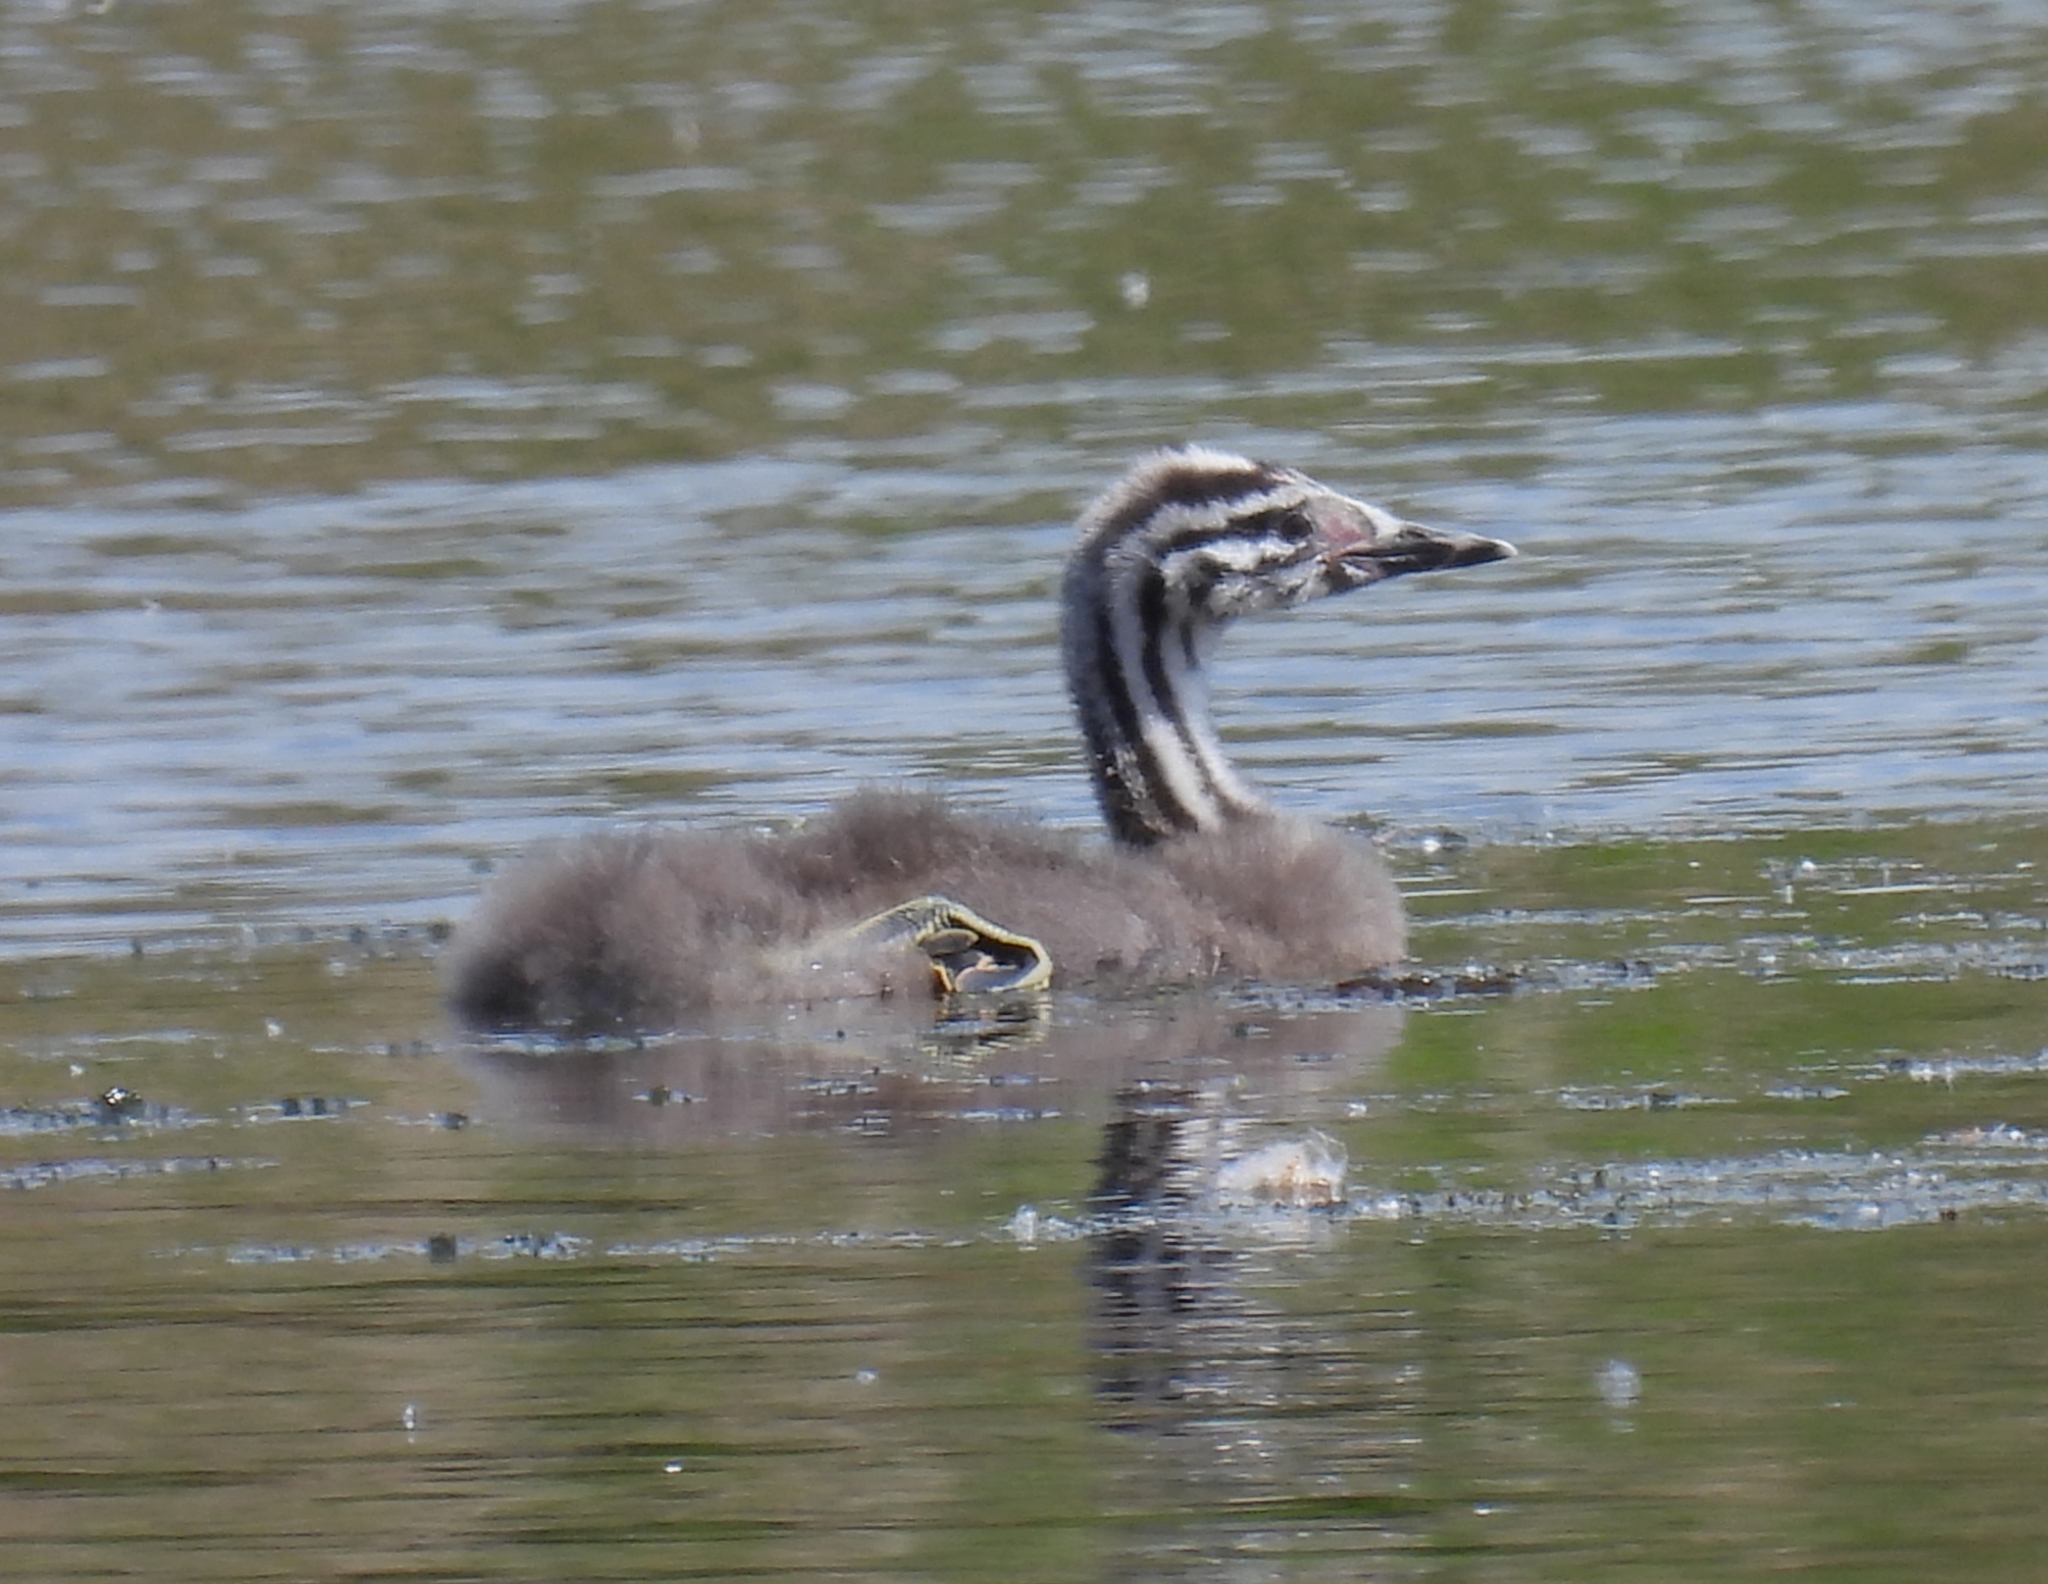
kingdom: Animalia
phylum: Chordata
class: Aves
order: Podicipediformes
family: Podicipedidae
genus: Podiceps
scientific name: Podiceps cristatus
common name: Great crested grebe
